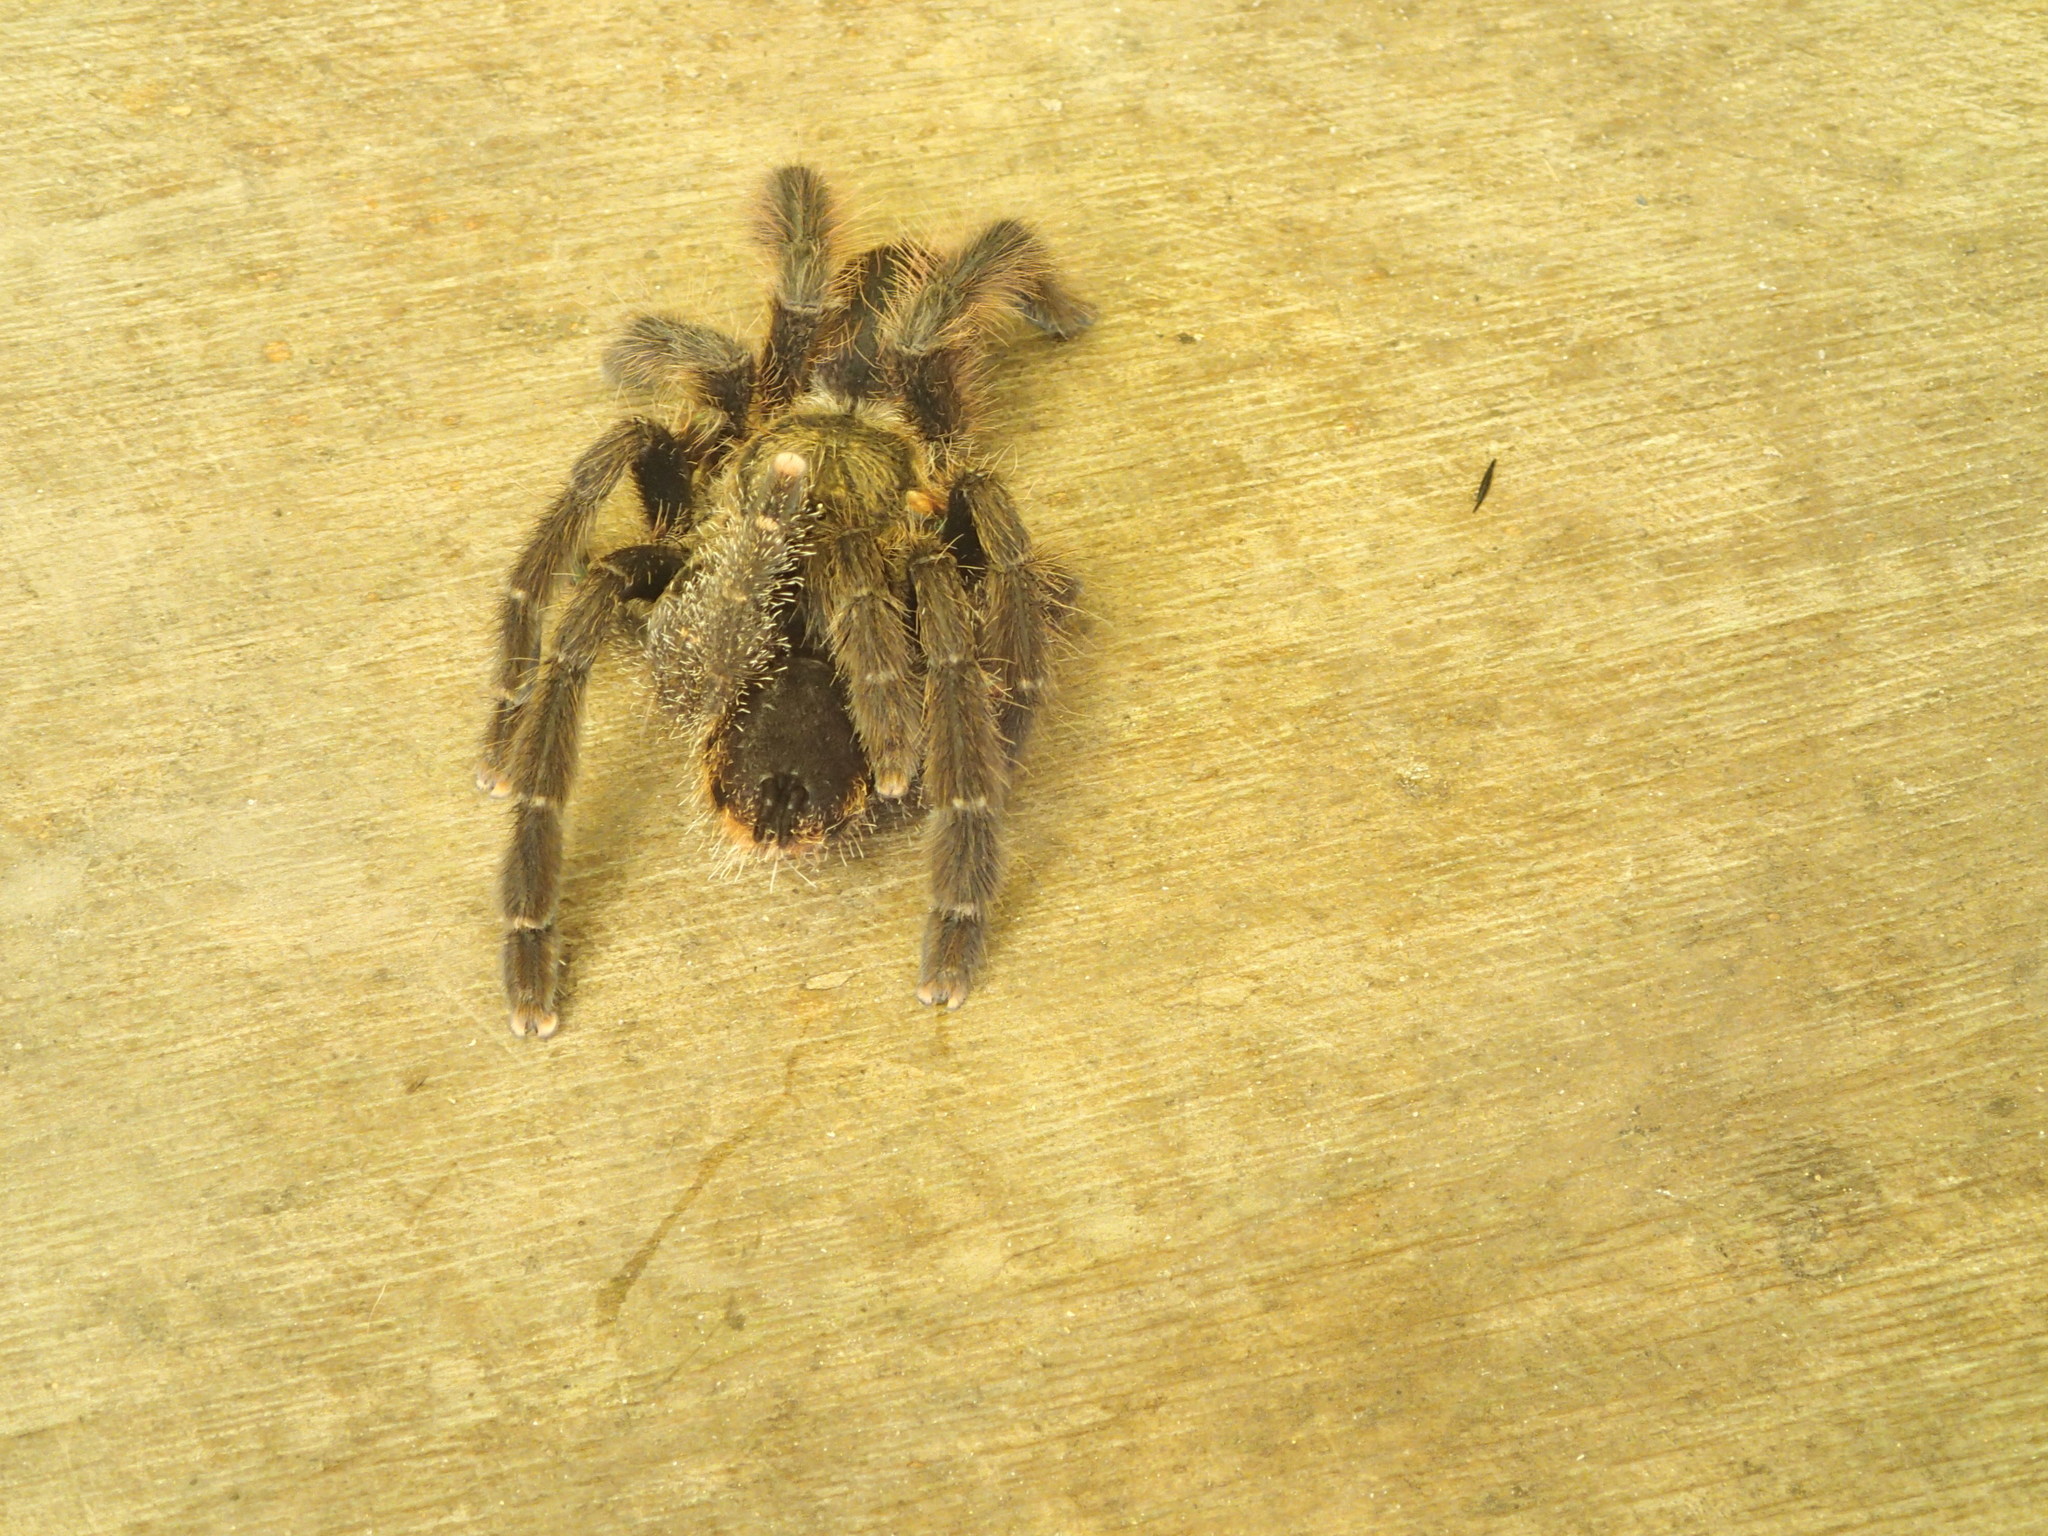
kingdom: Animalia
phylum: Arthropoda
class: Arachnida
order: Araneae
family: Theraphosidae
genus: Tapinauchenius
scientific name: Tapinauchenius cupreus
